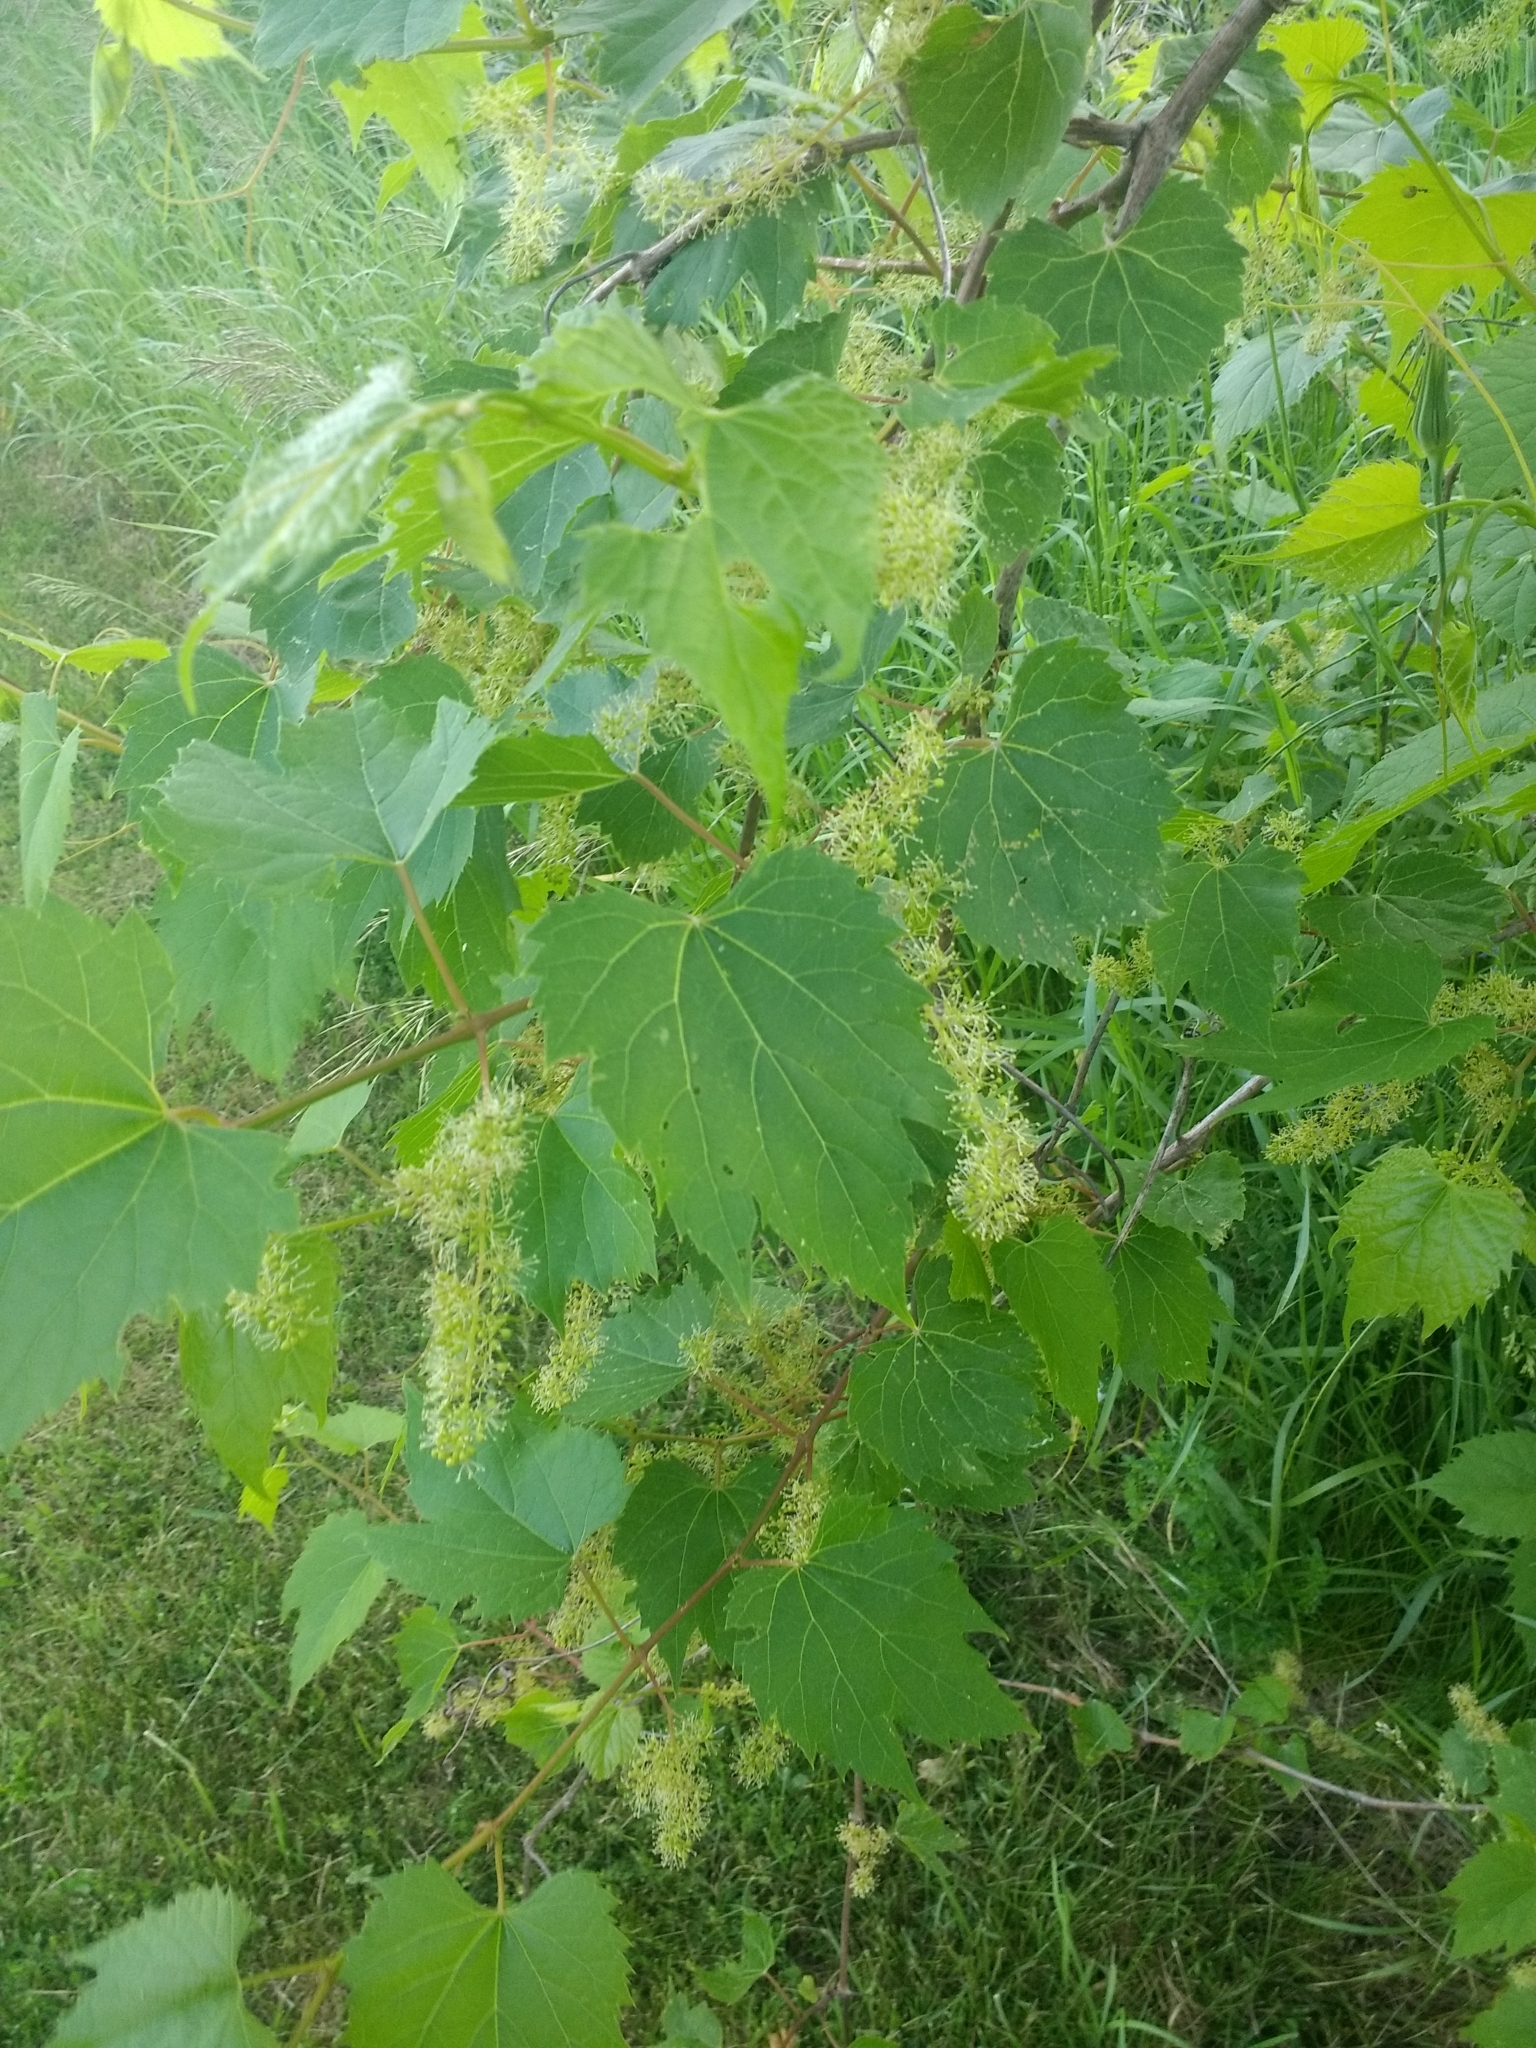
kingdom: Plantae
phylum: Tracheophyta
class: Magnoliopsida
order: Vitales
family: Vitaceae
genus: Vitis
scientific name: Vitis riparia
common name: Frost grape
